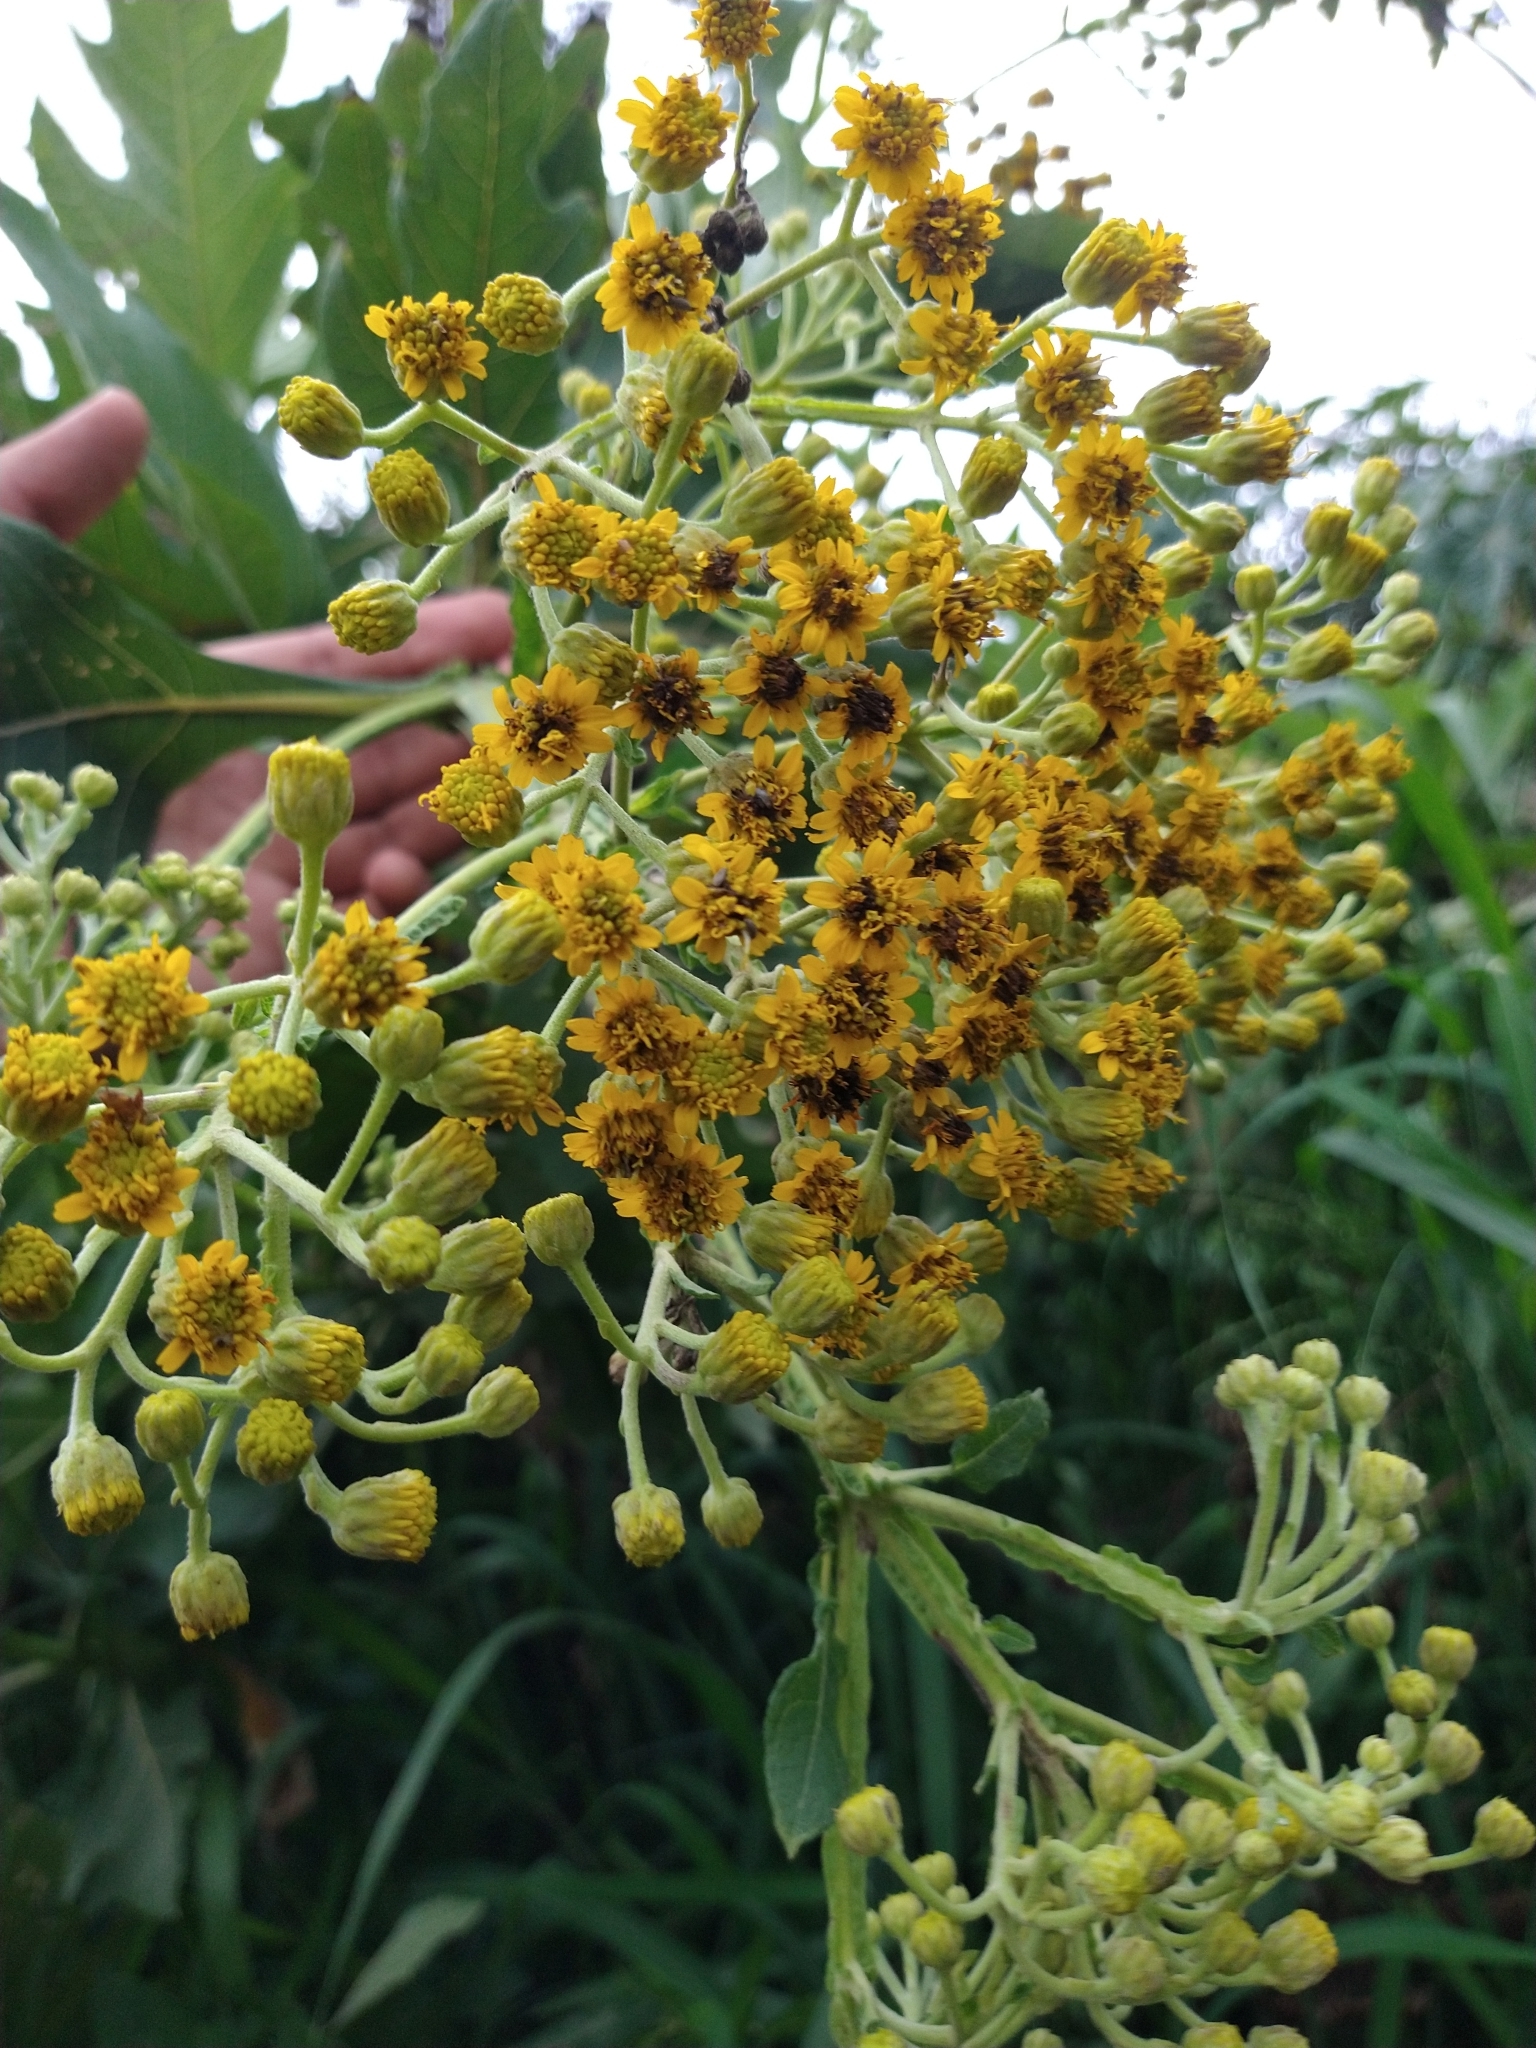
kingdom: Plantae
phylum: Tracheophyta
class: Magnoliopsida
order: Asterales
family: Asteraceae
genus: Verbesina
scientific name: Verbesina fastigiata
